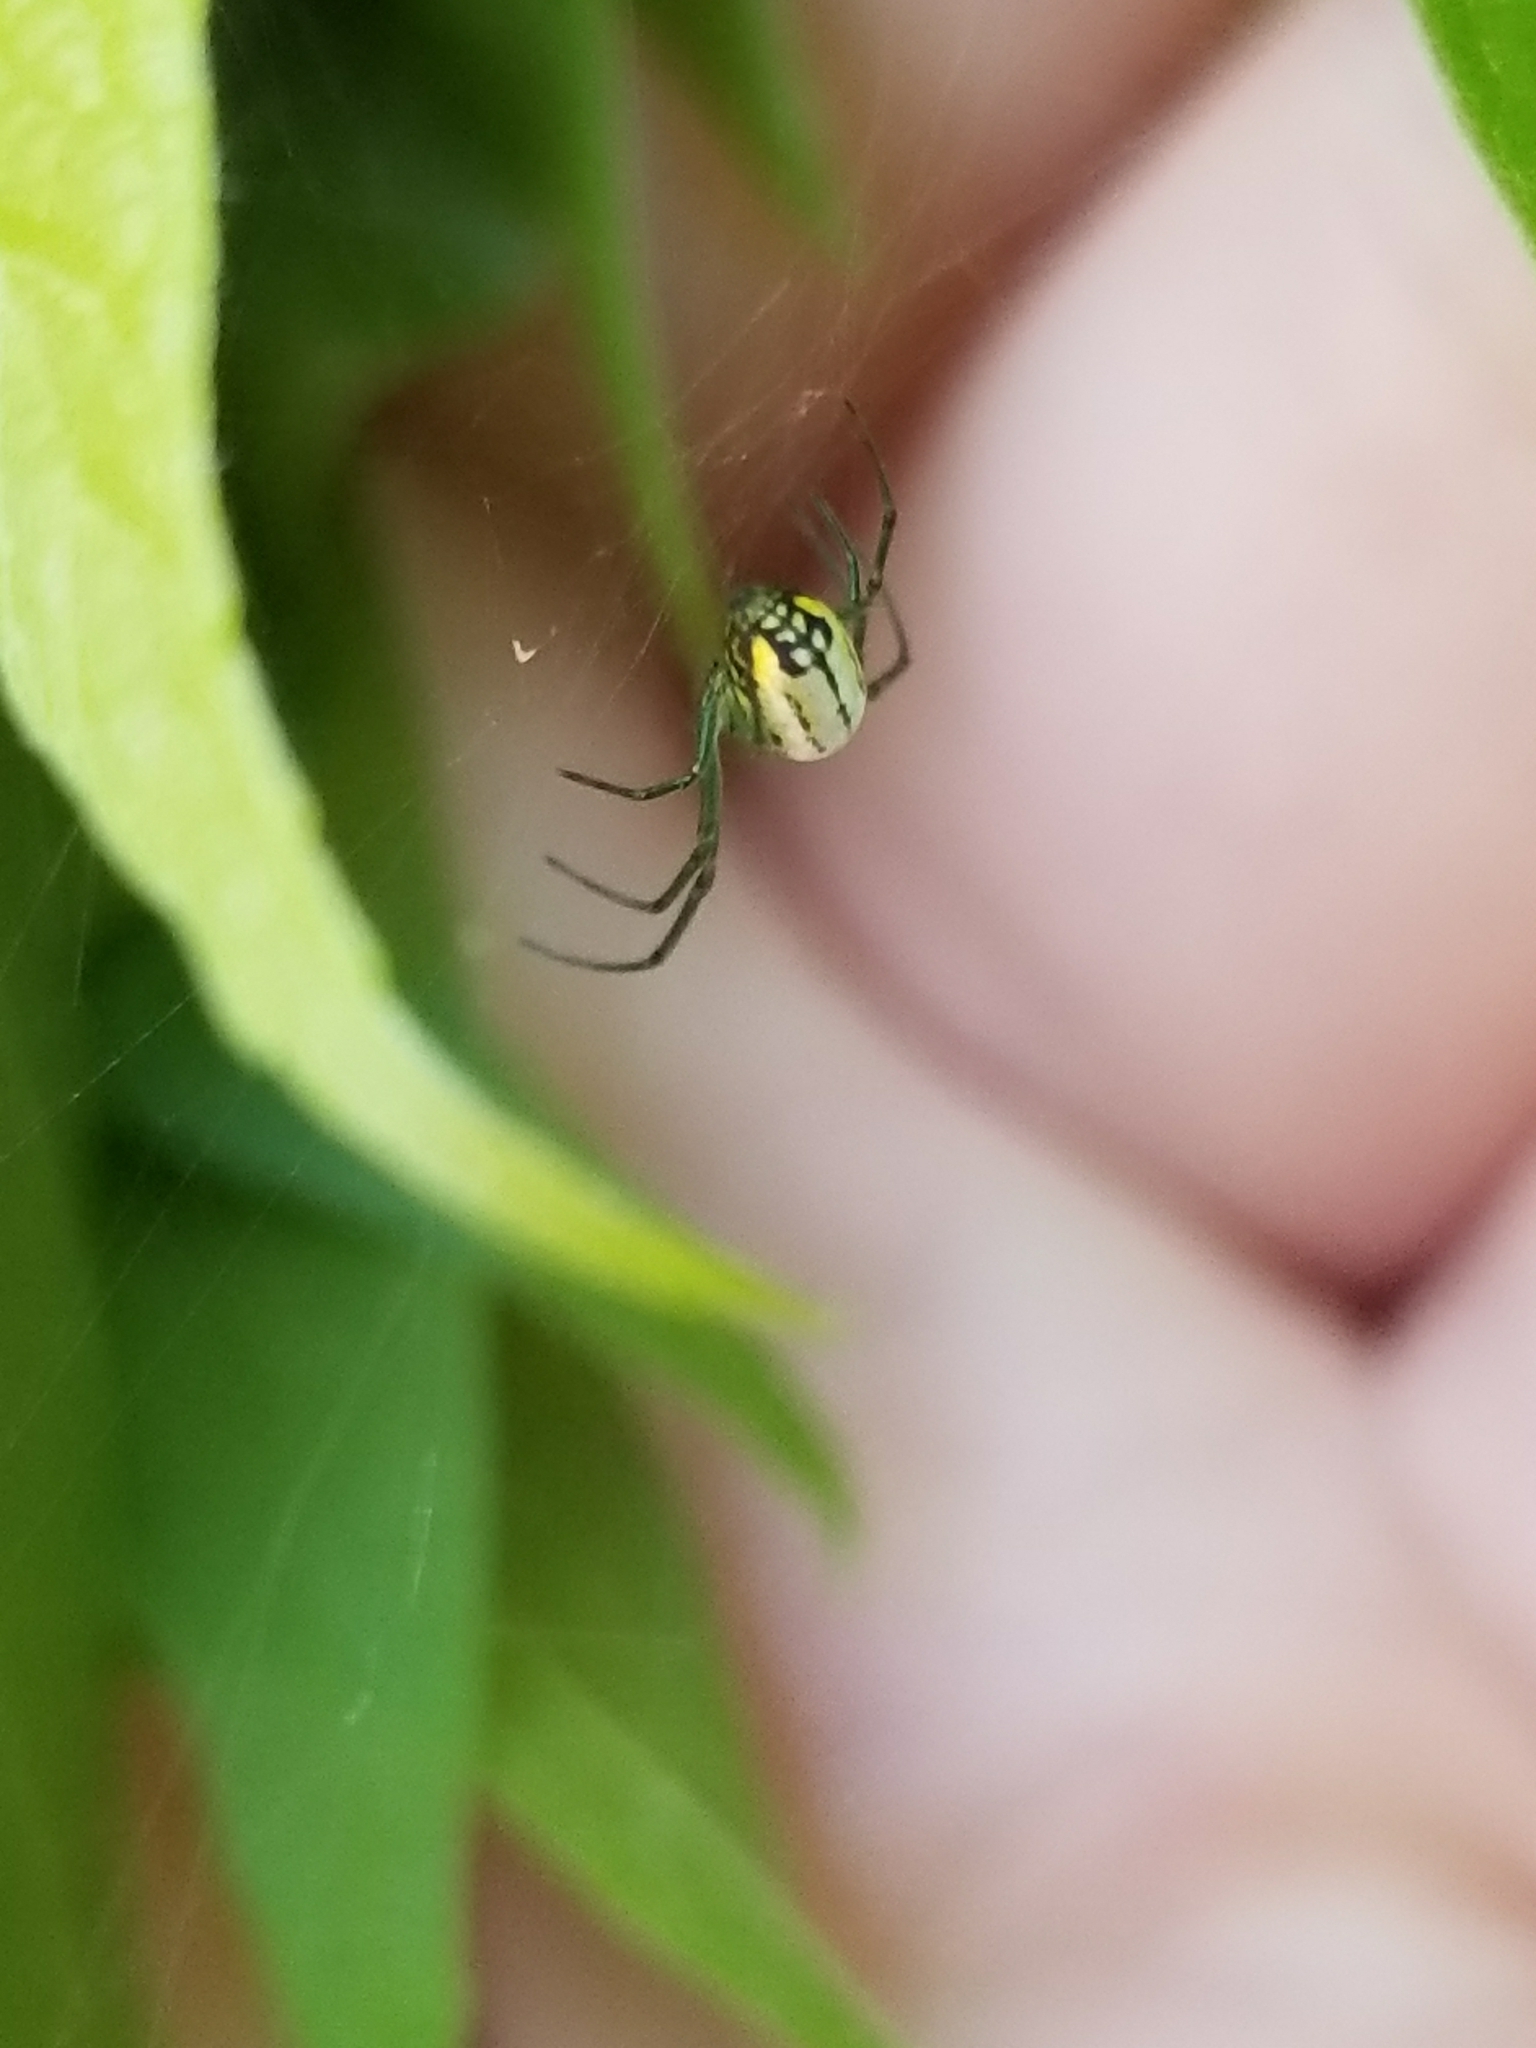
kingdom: Animalia
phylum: Arthropoda
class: Arachnida
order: Araneae
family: Tetragnathidae
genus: Leucauge
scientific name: Leucauge
